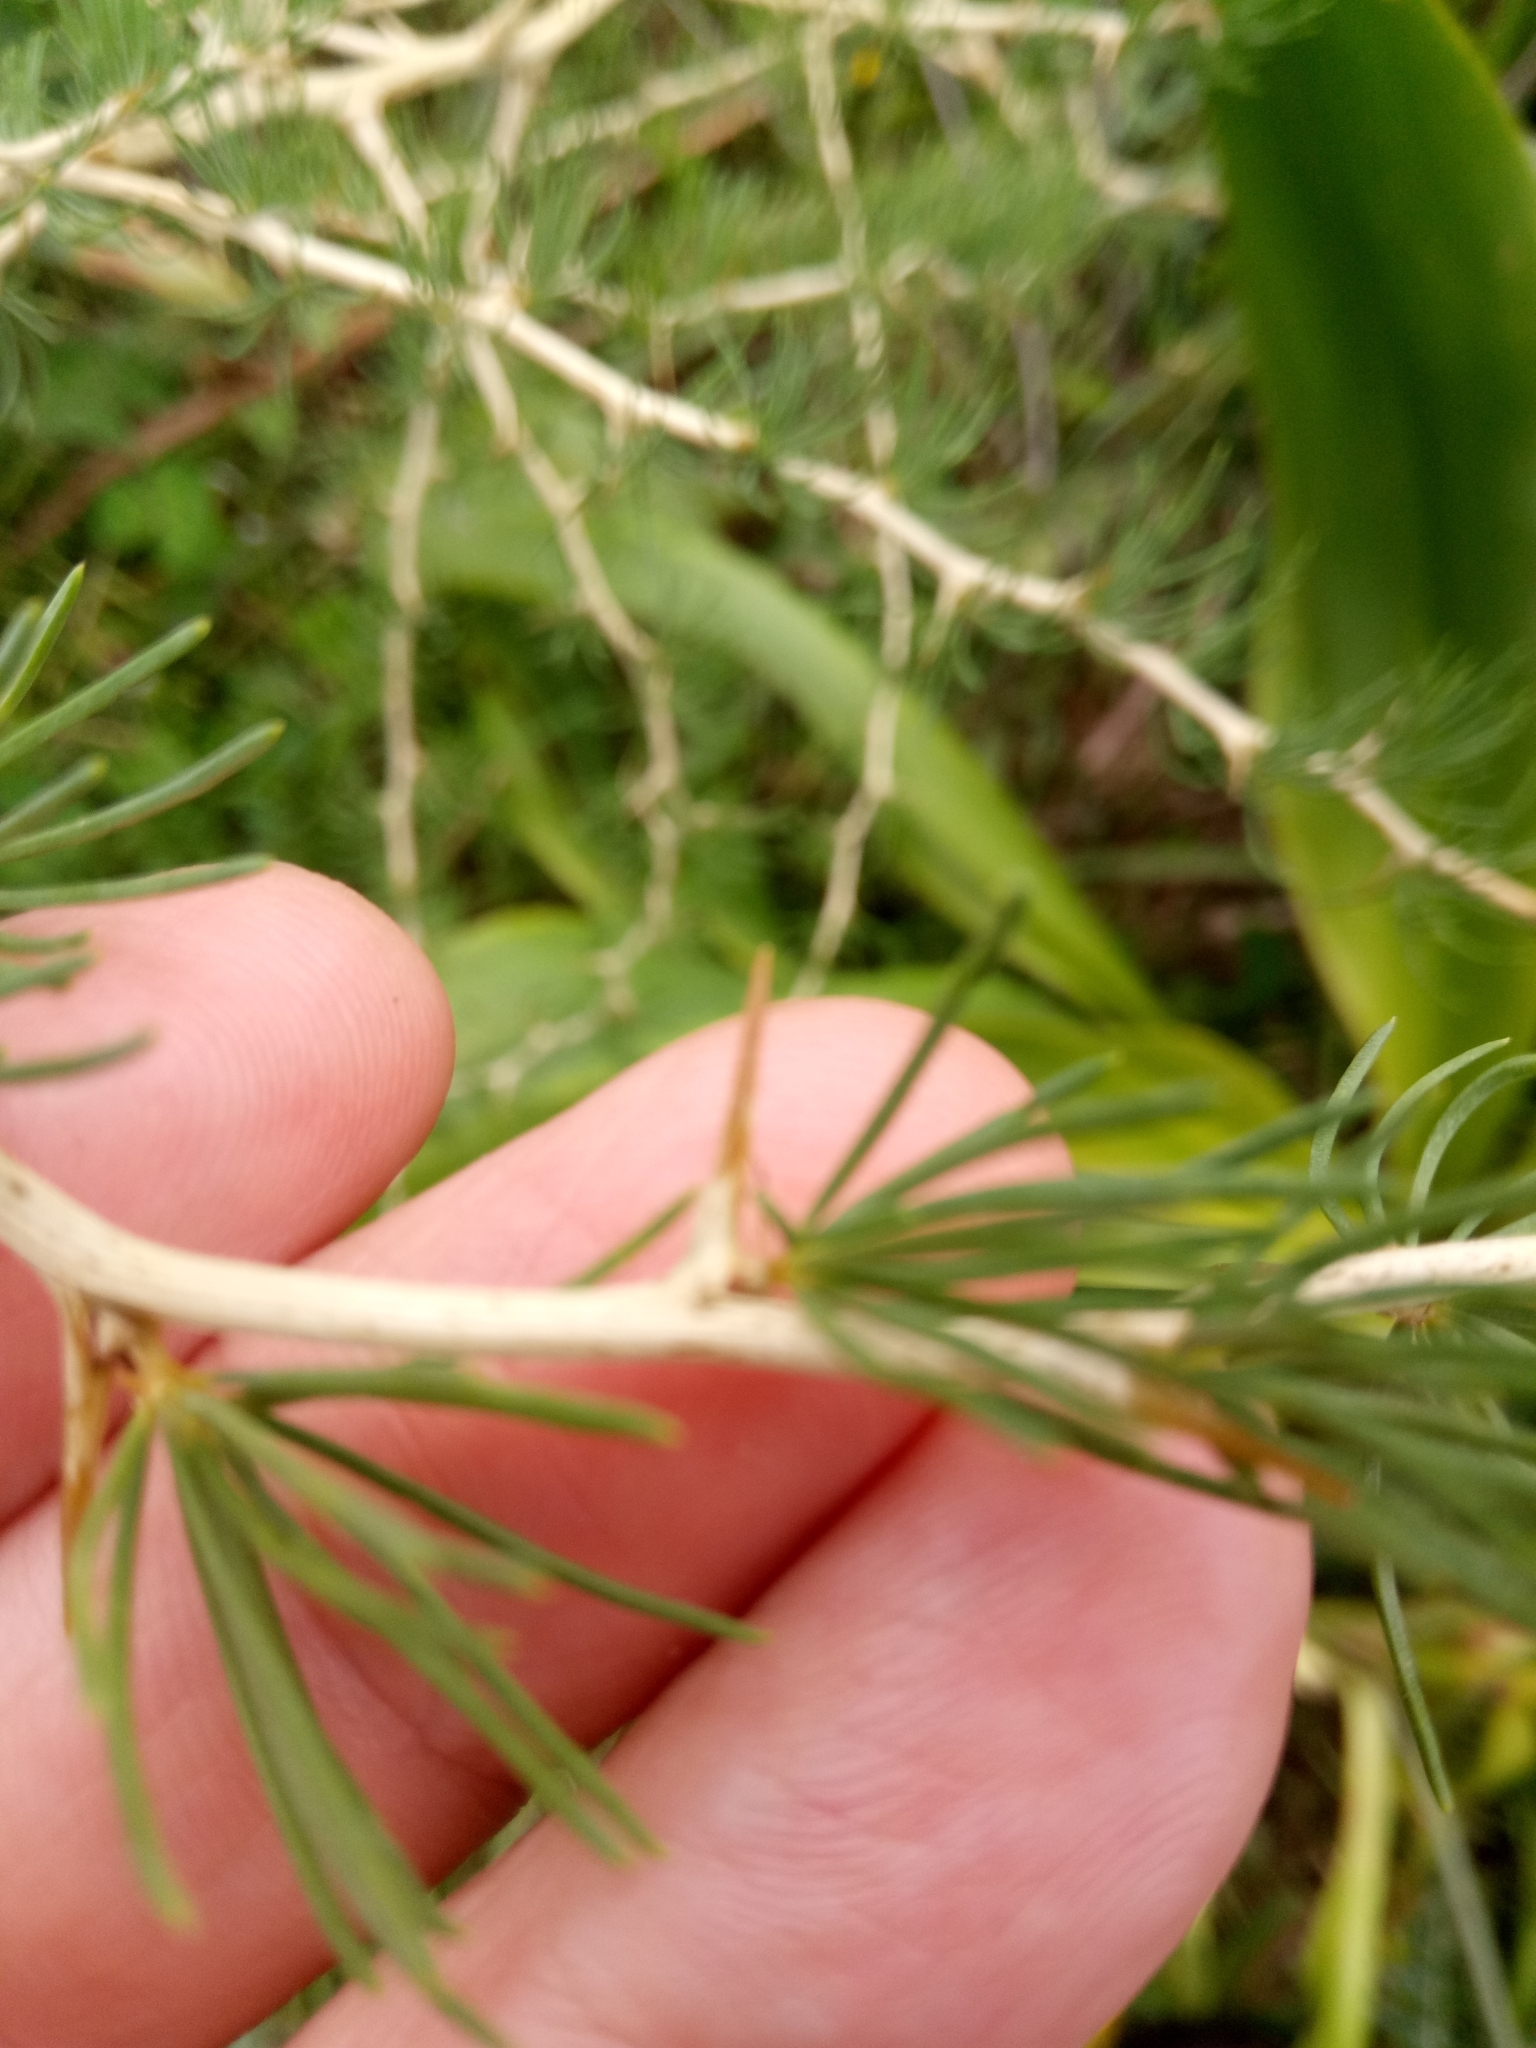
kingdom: Plantae
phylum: Tracheophyta
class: Liliopsida
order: Asparagales
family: Asparagaceae
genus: Asparagus
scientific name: Asparagus albus
